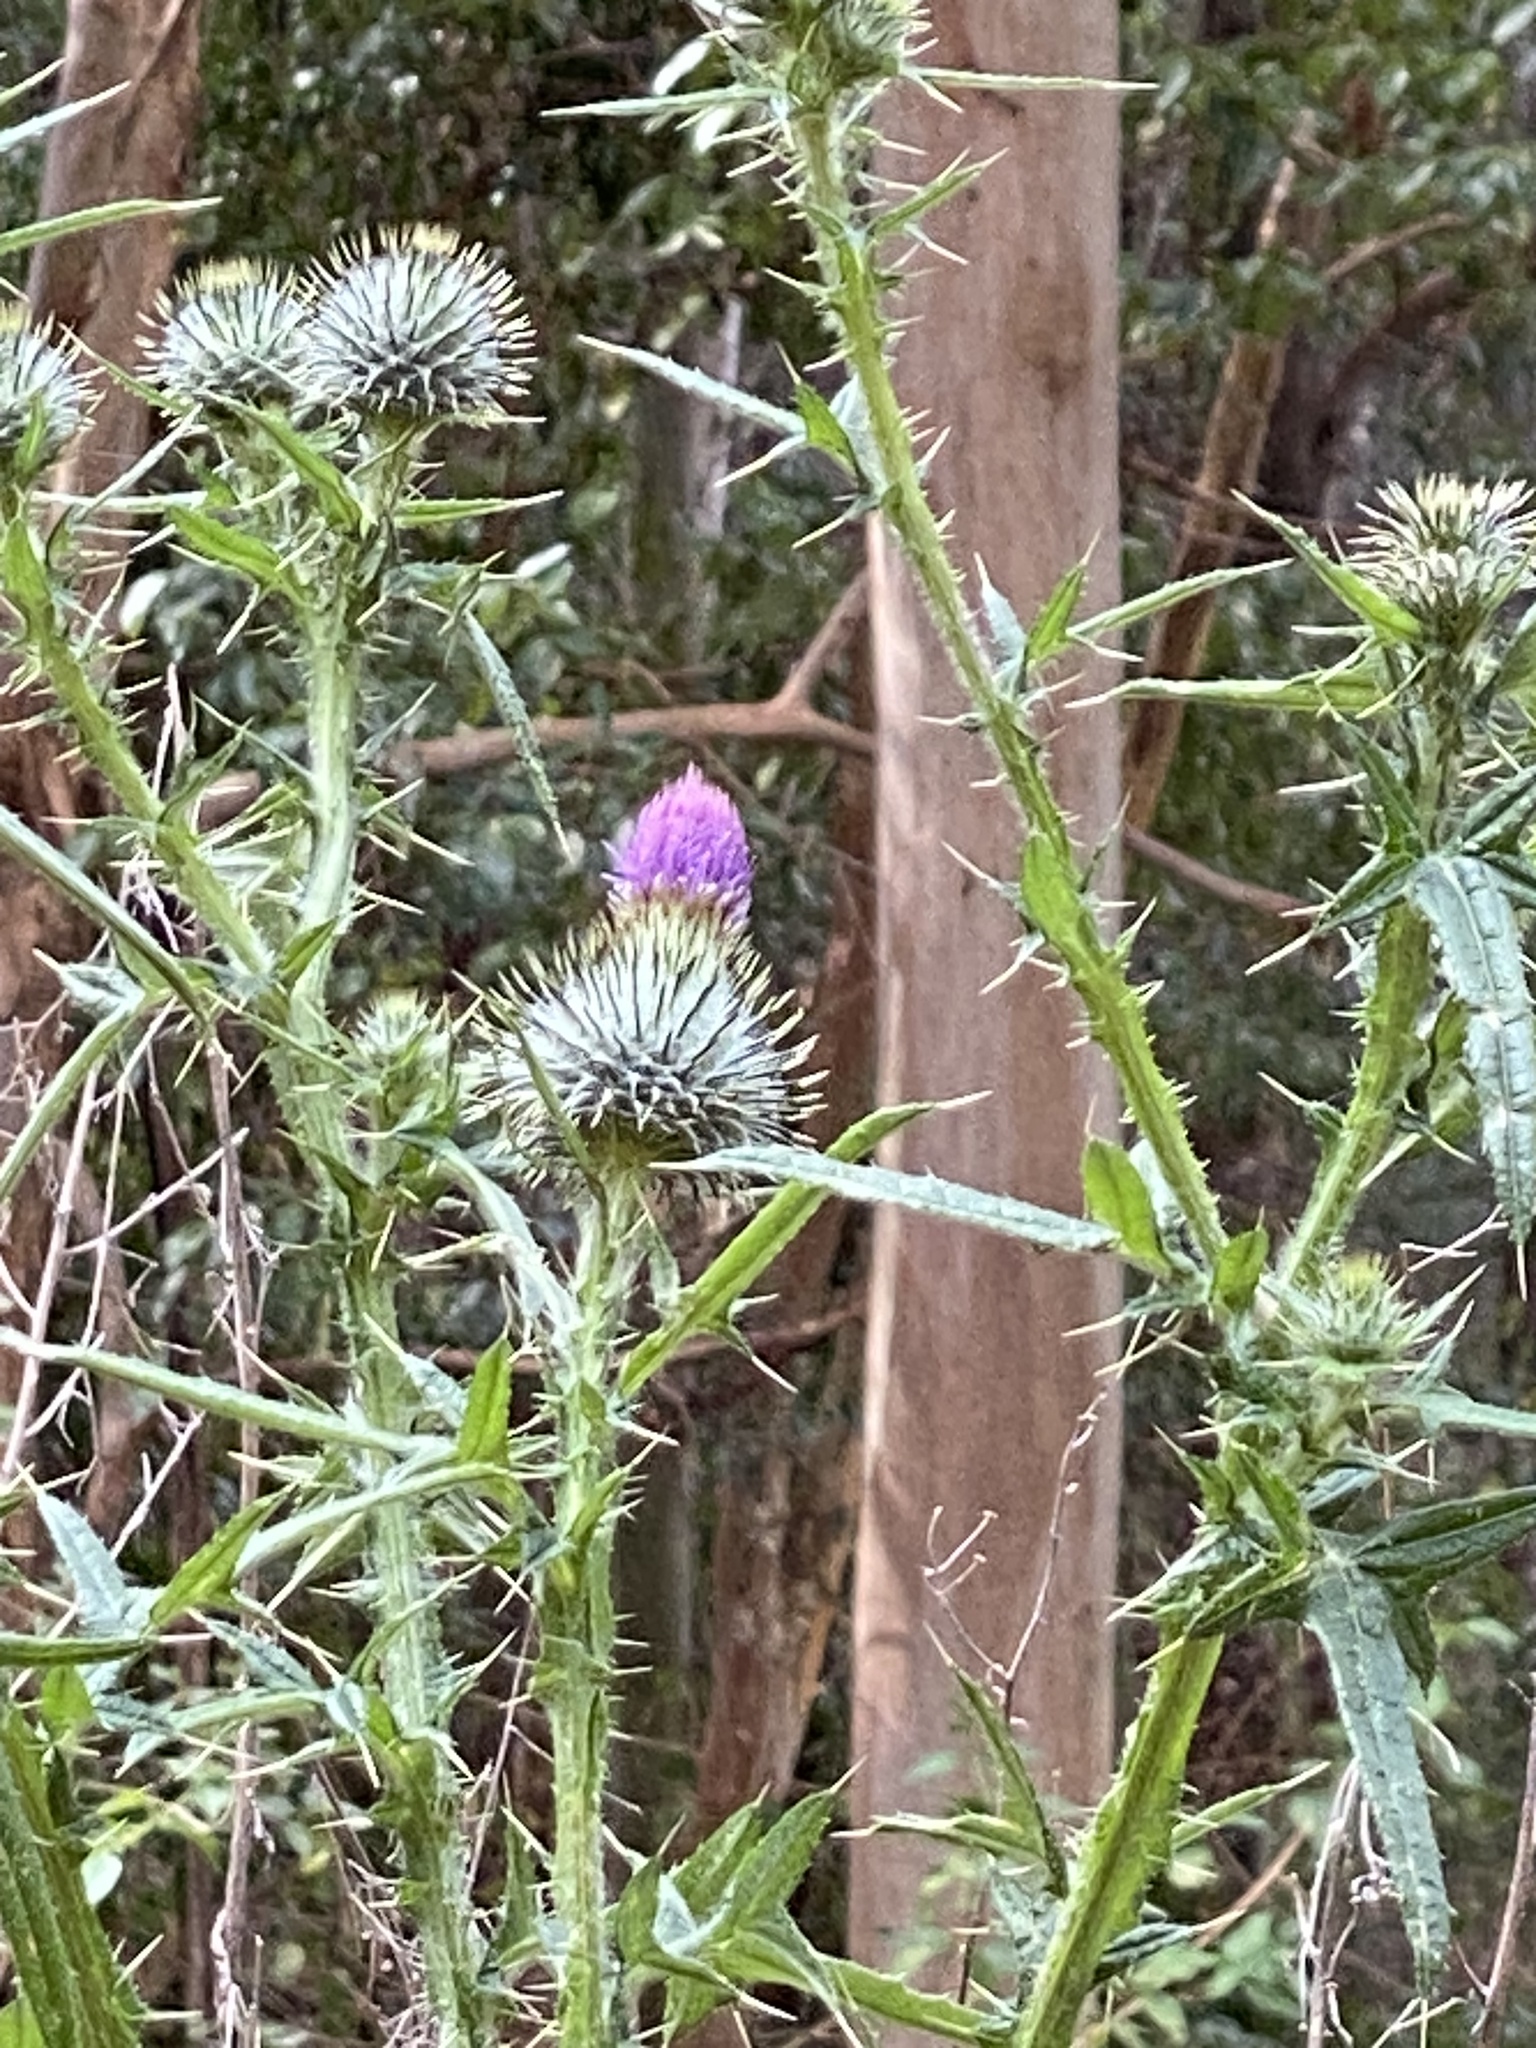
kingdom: Plantae
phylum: Tracheophyta
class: Magnoliopsida
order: Asterales
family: Asteraceae
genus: Cirsium
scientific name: Cirsium vulgare
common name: Bull thistle
